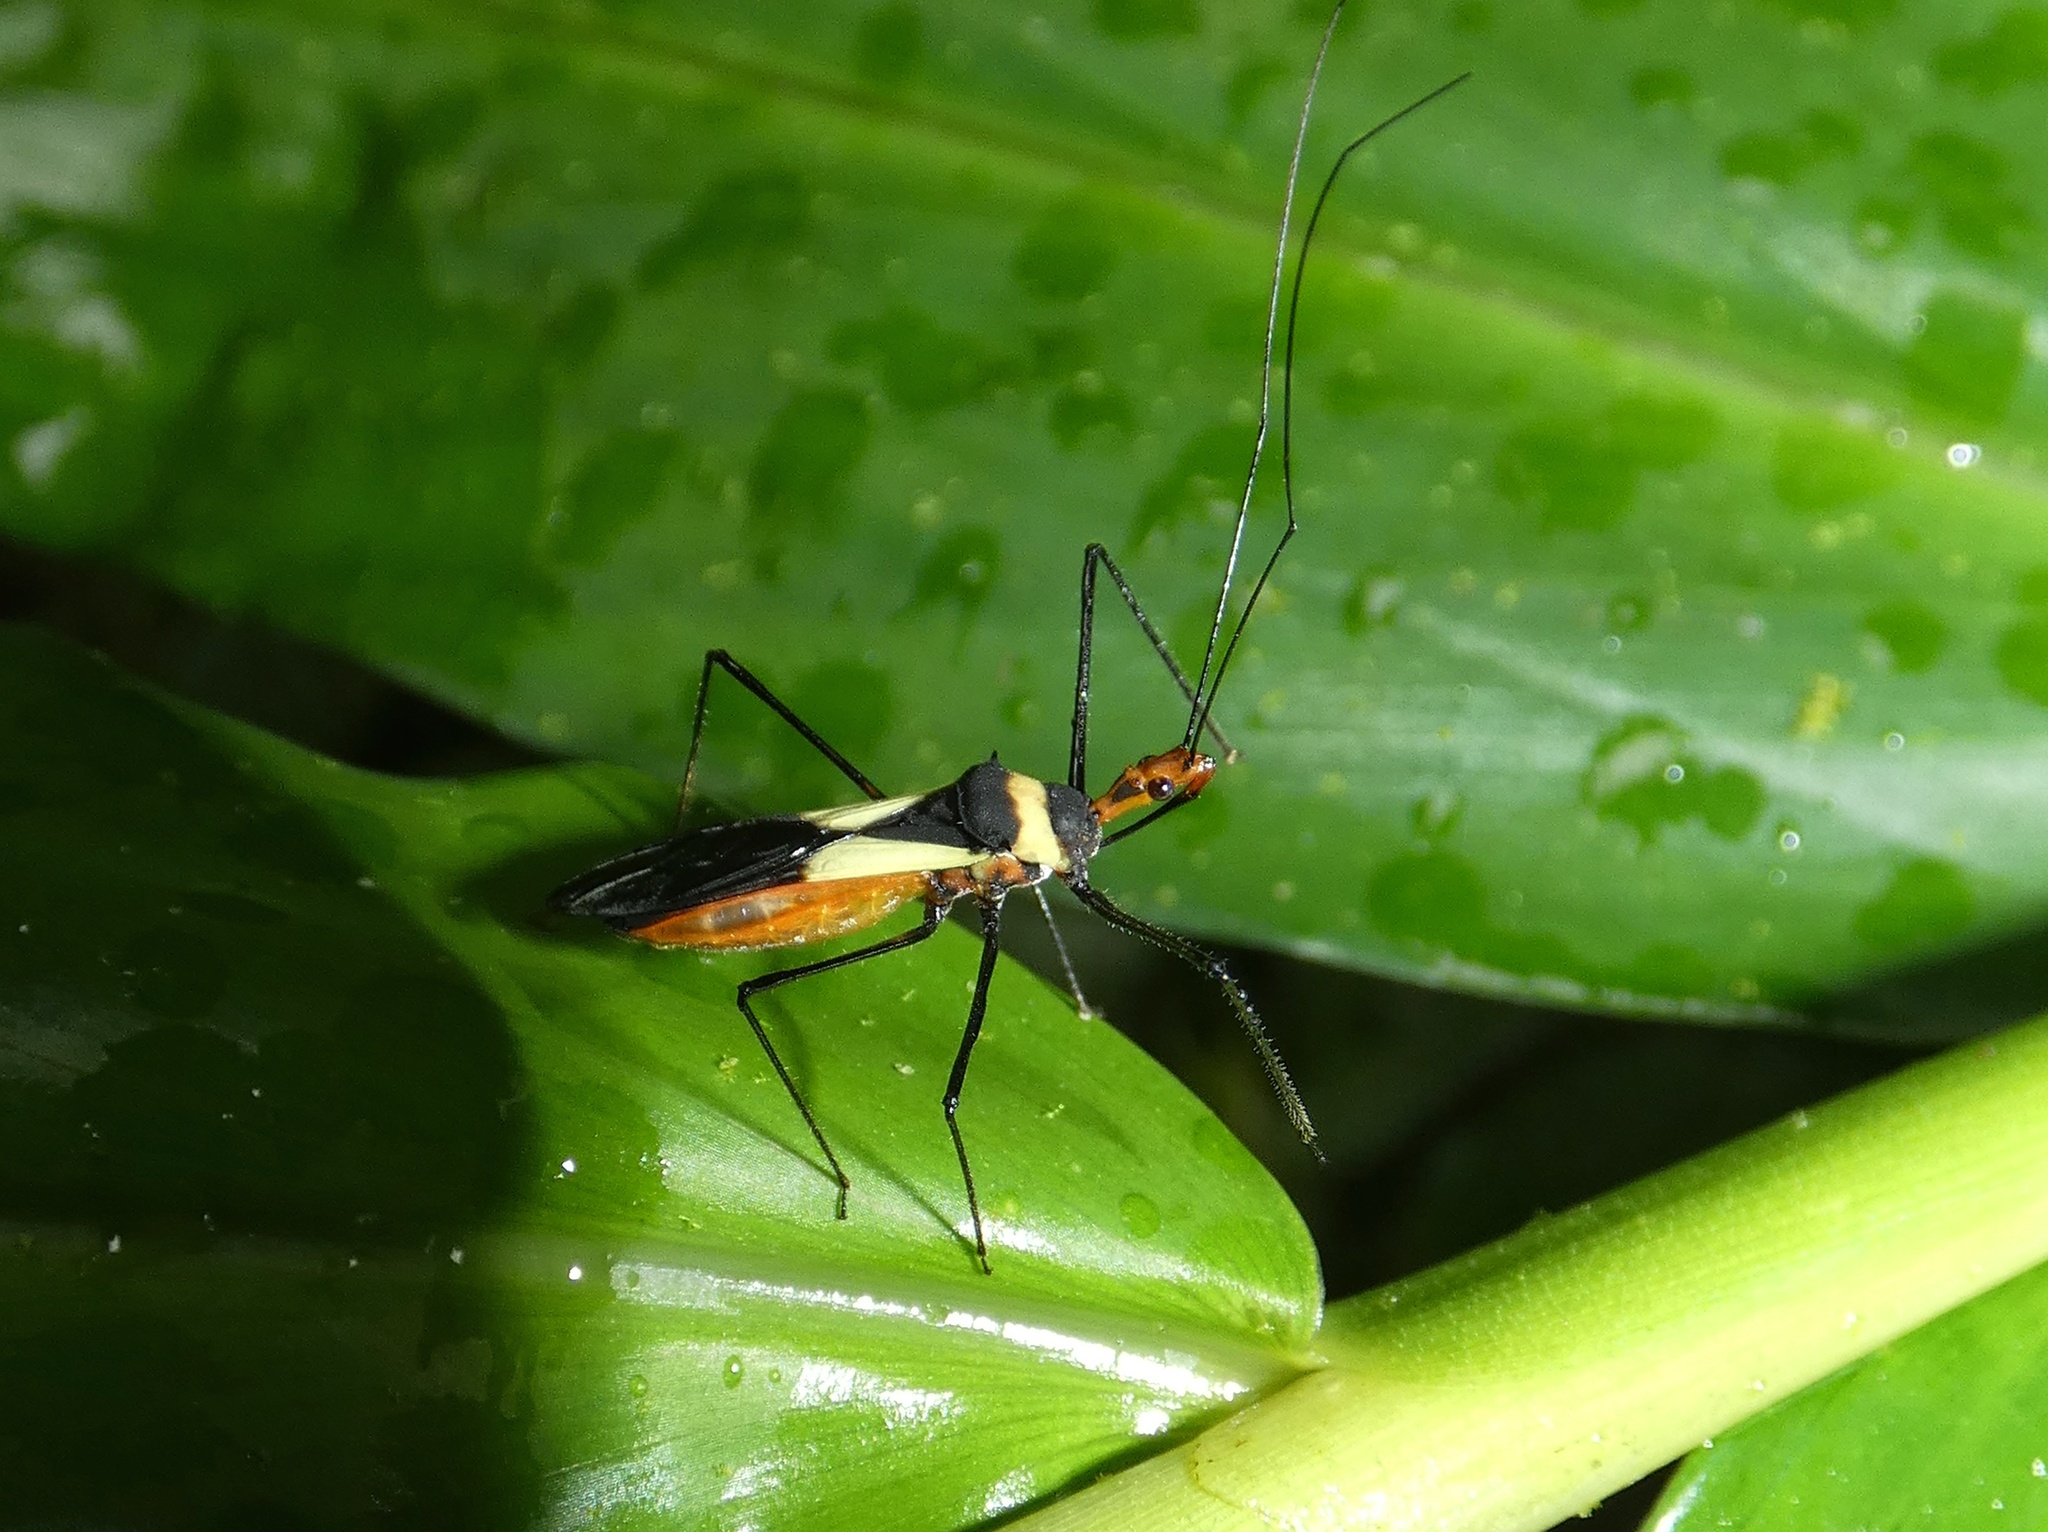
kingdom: Animalia
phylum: Arthropoda
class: Insecta
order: Hemiptera
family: Reduviidae
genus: Zelus
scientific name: Zelus fasciatus
